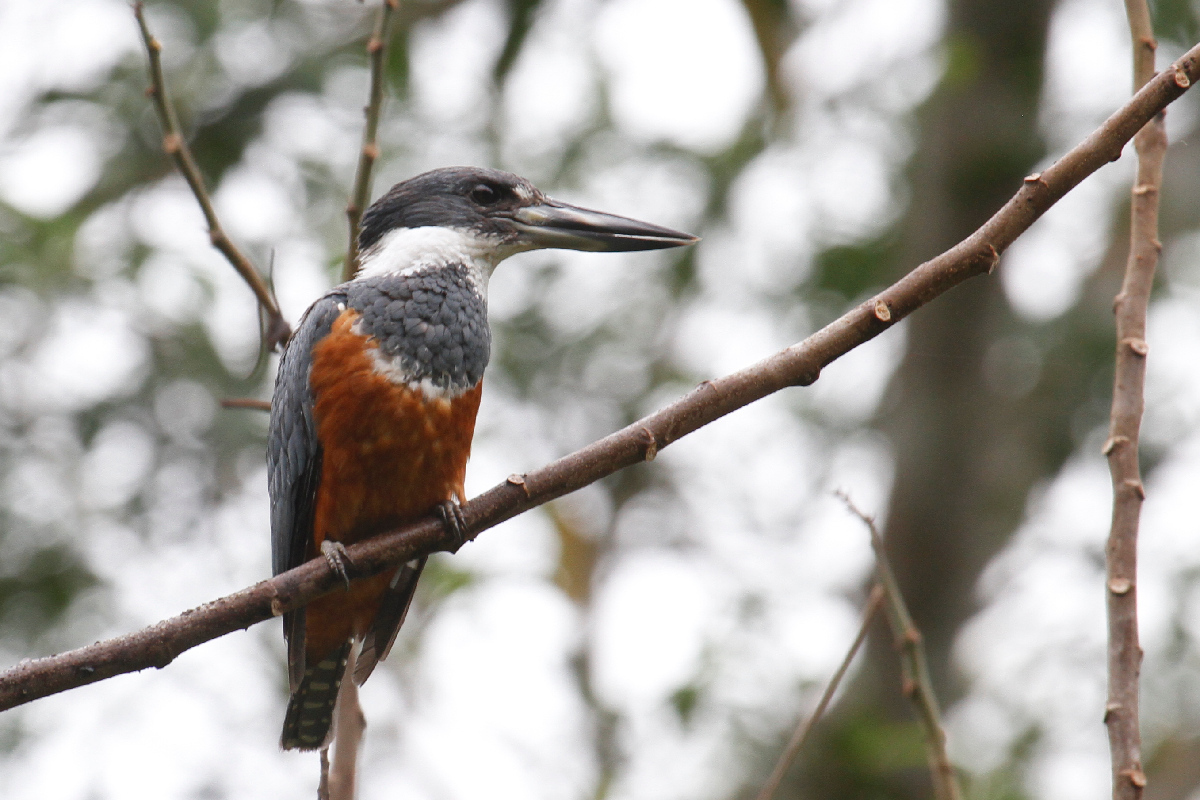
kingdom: Animalia
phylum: Chordata
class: Aves
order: Coraciiformes
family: Alcedinidae
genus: Megaceryle
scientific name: Megaceryle torquata
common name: Ringed kingfisher
